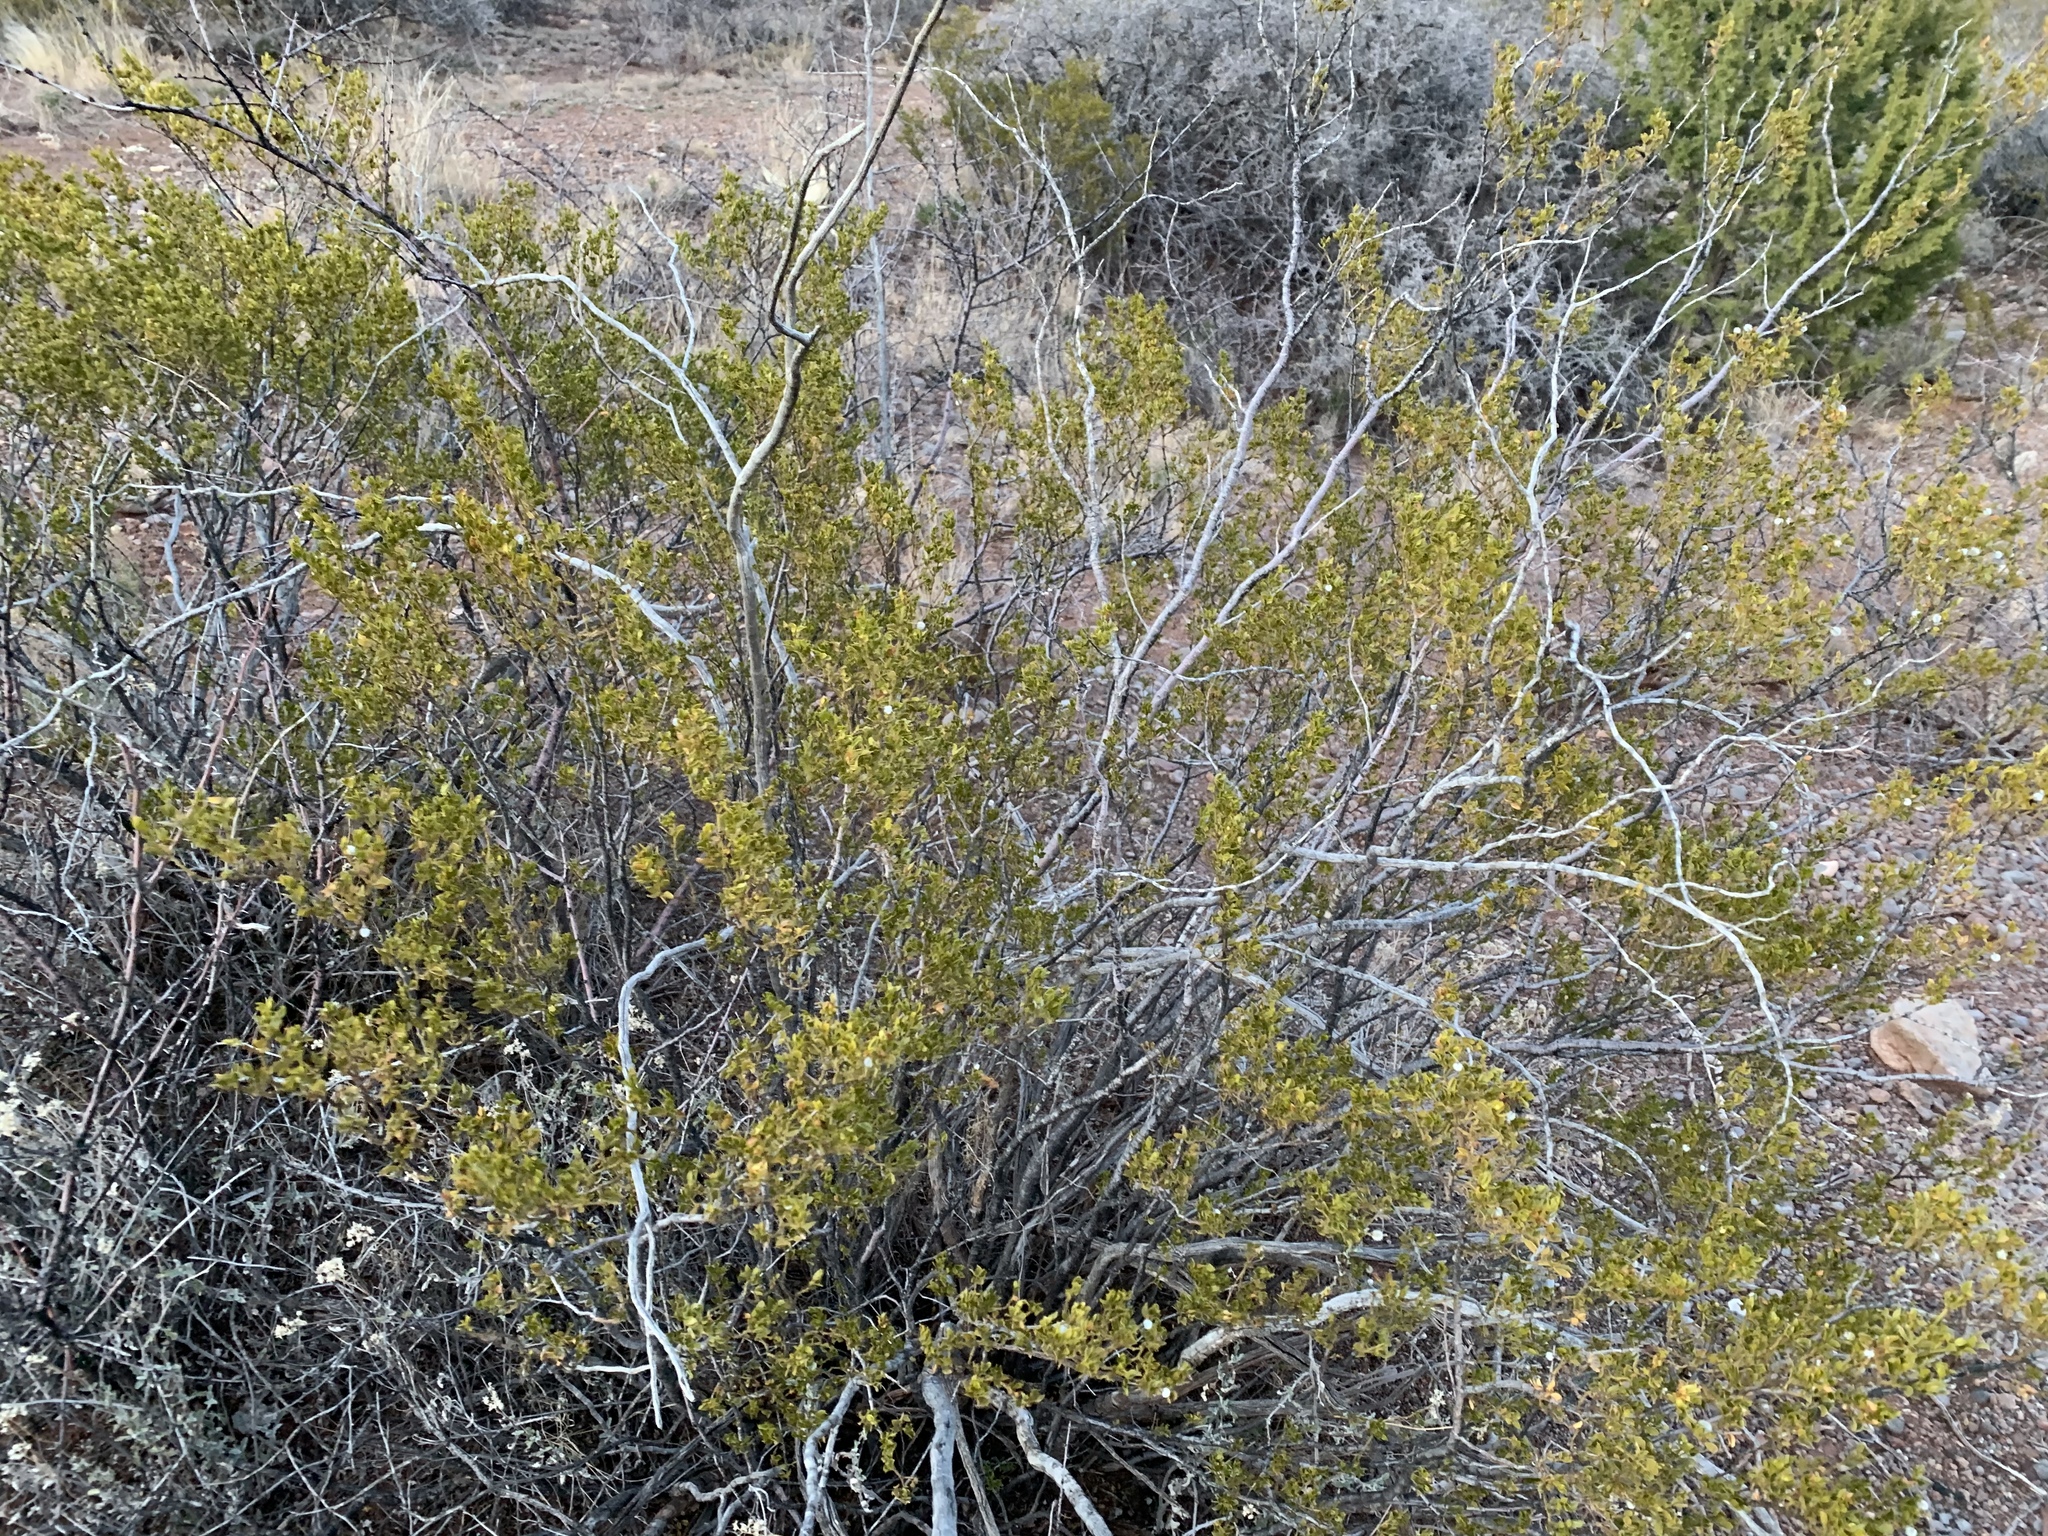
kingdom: Plantae
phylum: Tracheophyta
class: Magnoliopsida
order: Zygophyllales
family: Zygophyllaceae
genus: Larrea
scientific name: Larrea tridentata
